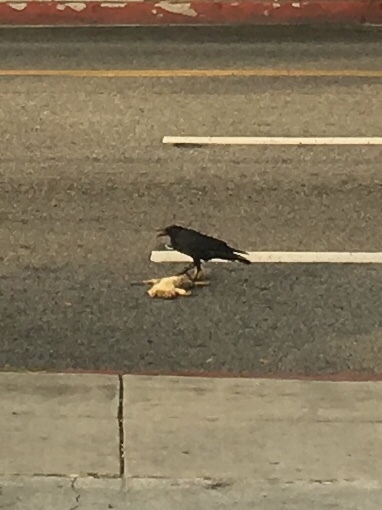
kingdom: Animalia
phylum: Chordata
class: Aves
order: Passeriformes
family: Corvidae
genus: Corvus
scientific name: Corvus brachyrhynchos
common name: American crow
